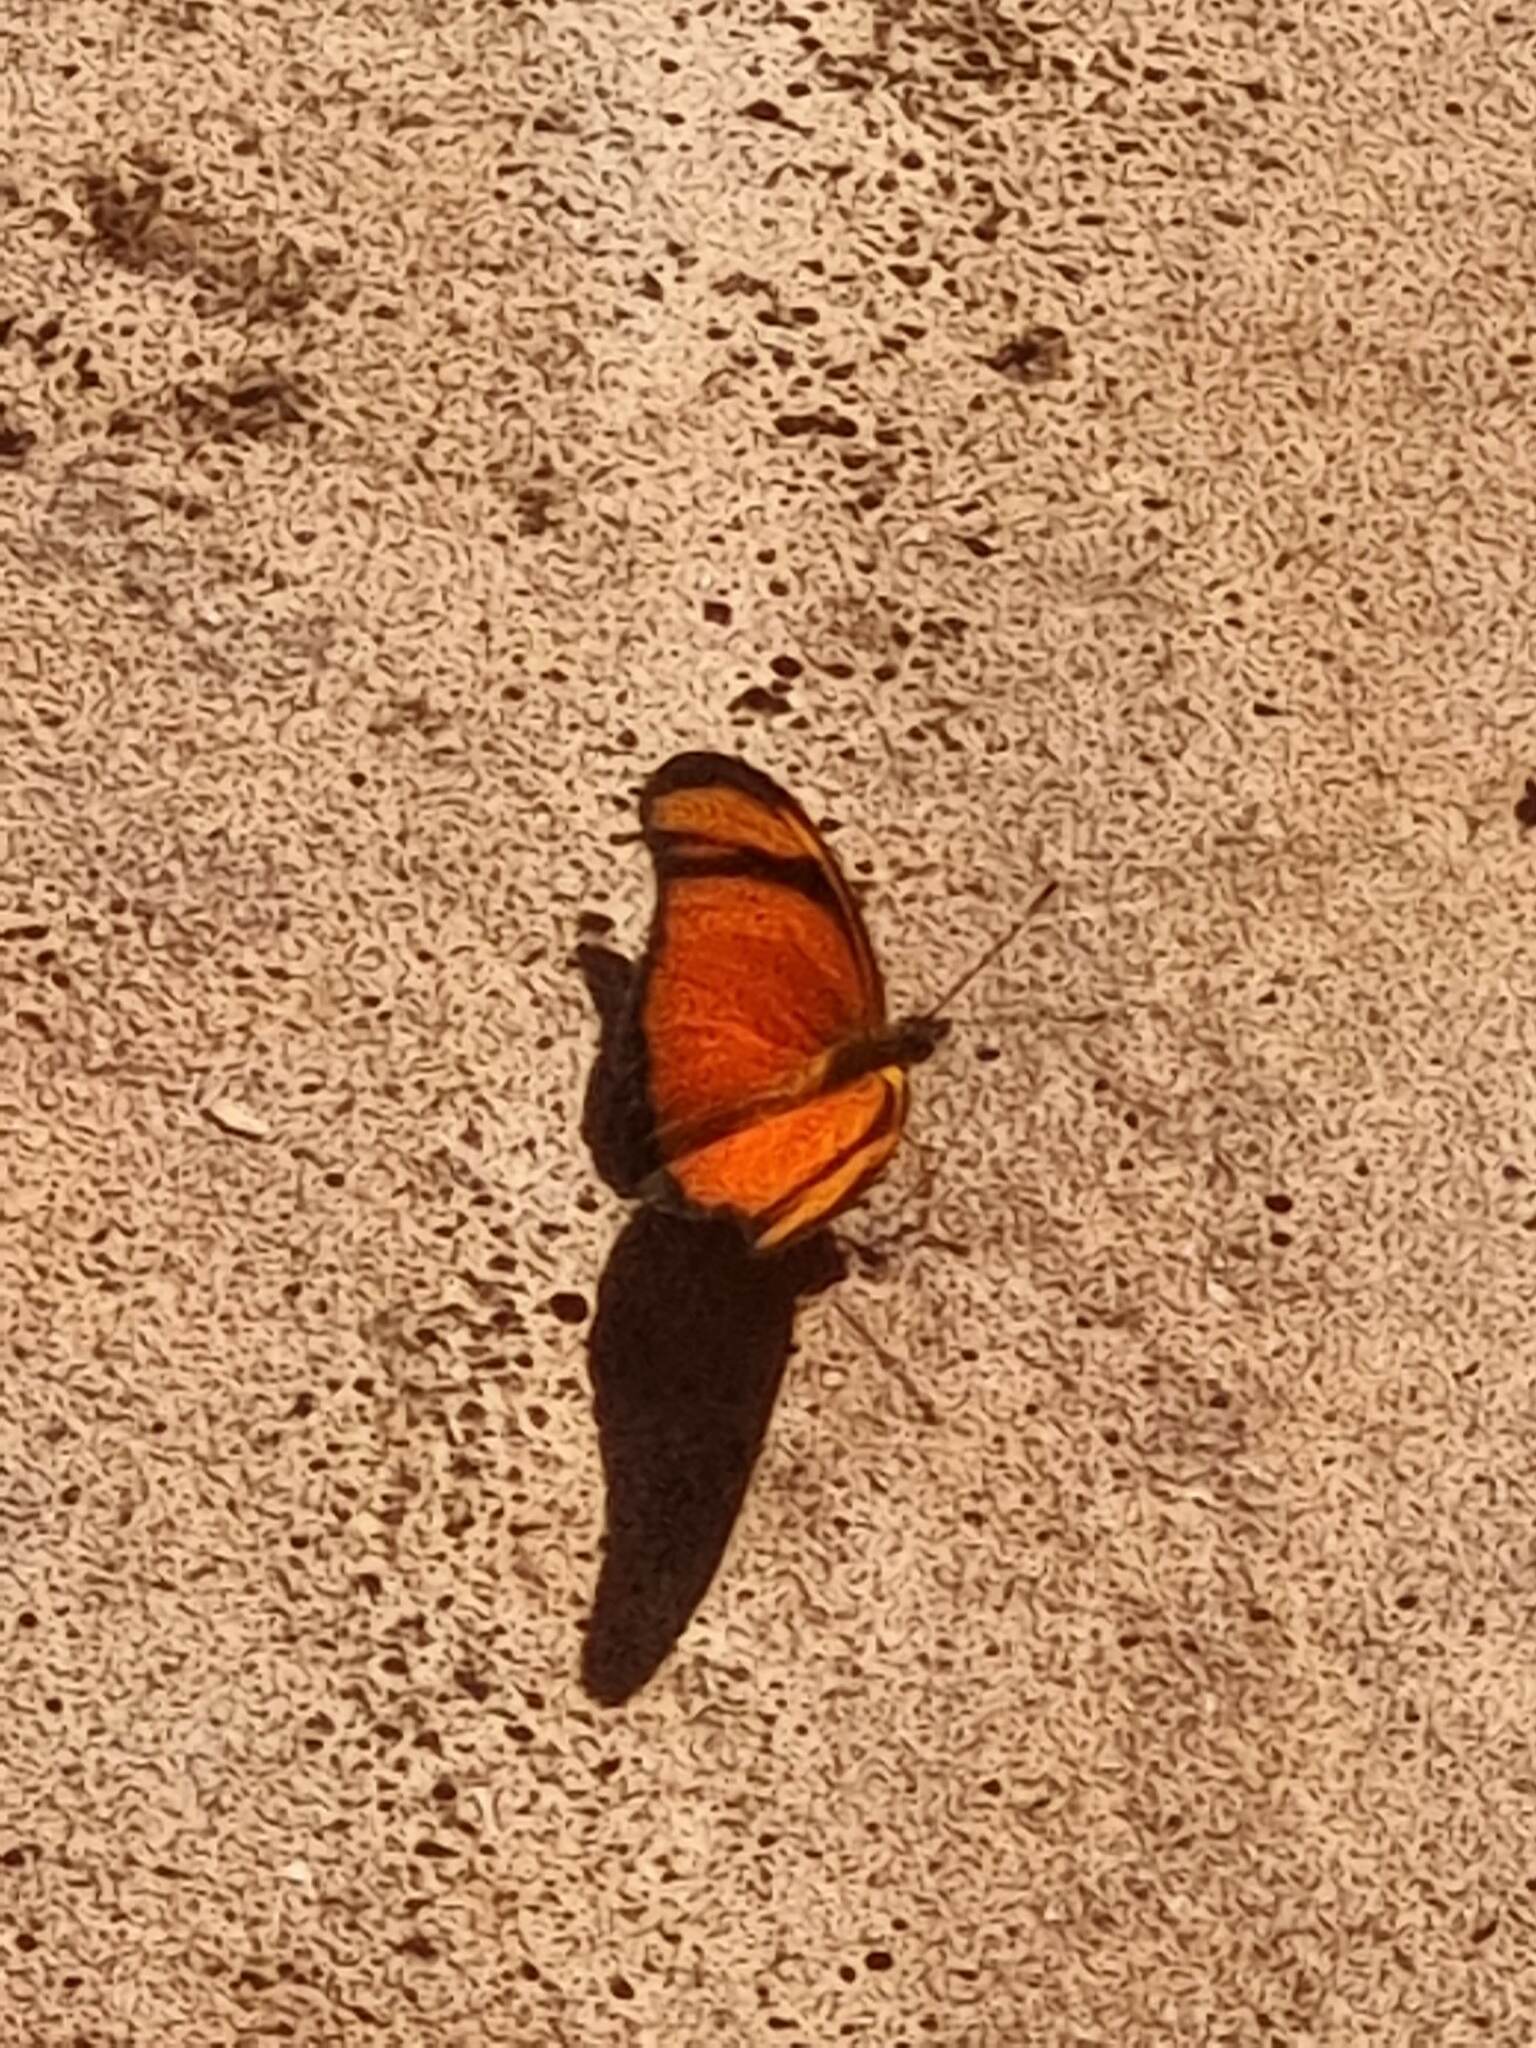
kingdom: Animalia
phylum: Arthropoda
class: Insecta
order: Lepidoptera
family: Nymphalidae
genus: Dryas
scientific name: Dryas iulia
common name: Flambeau
